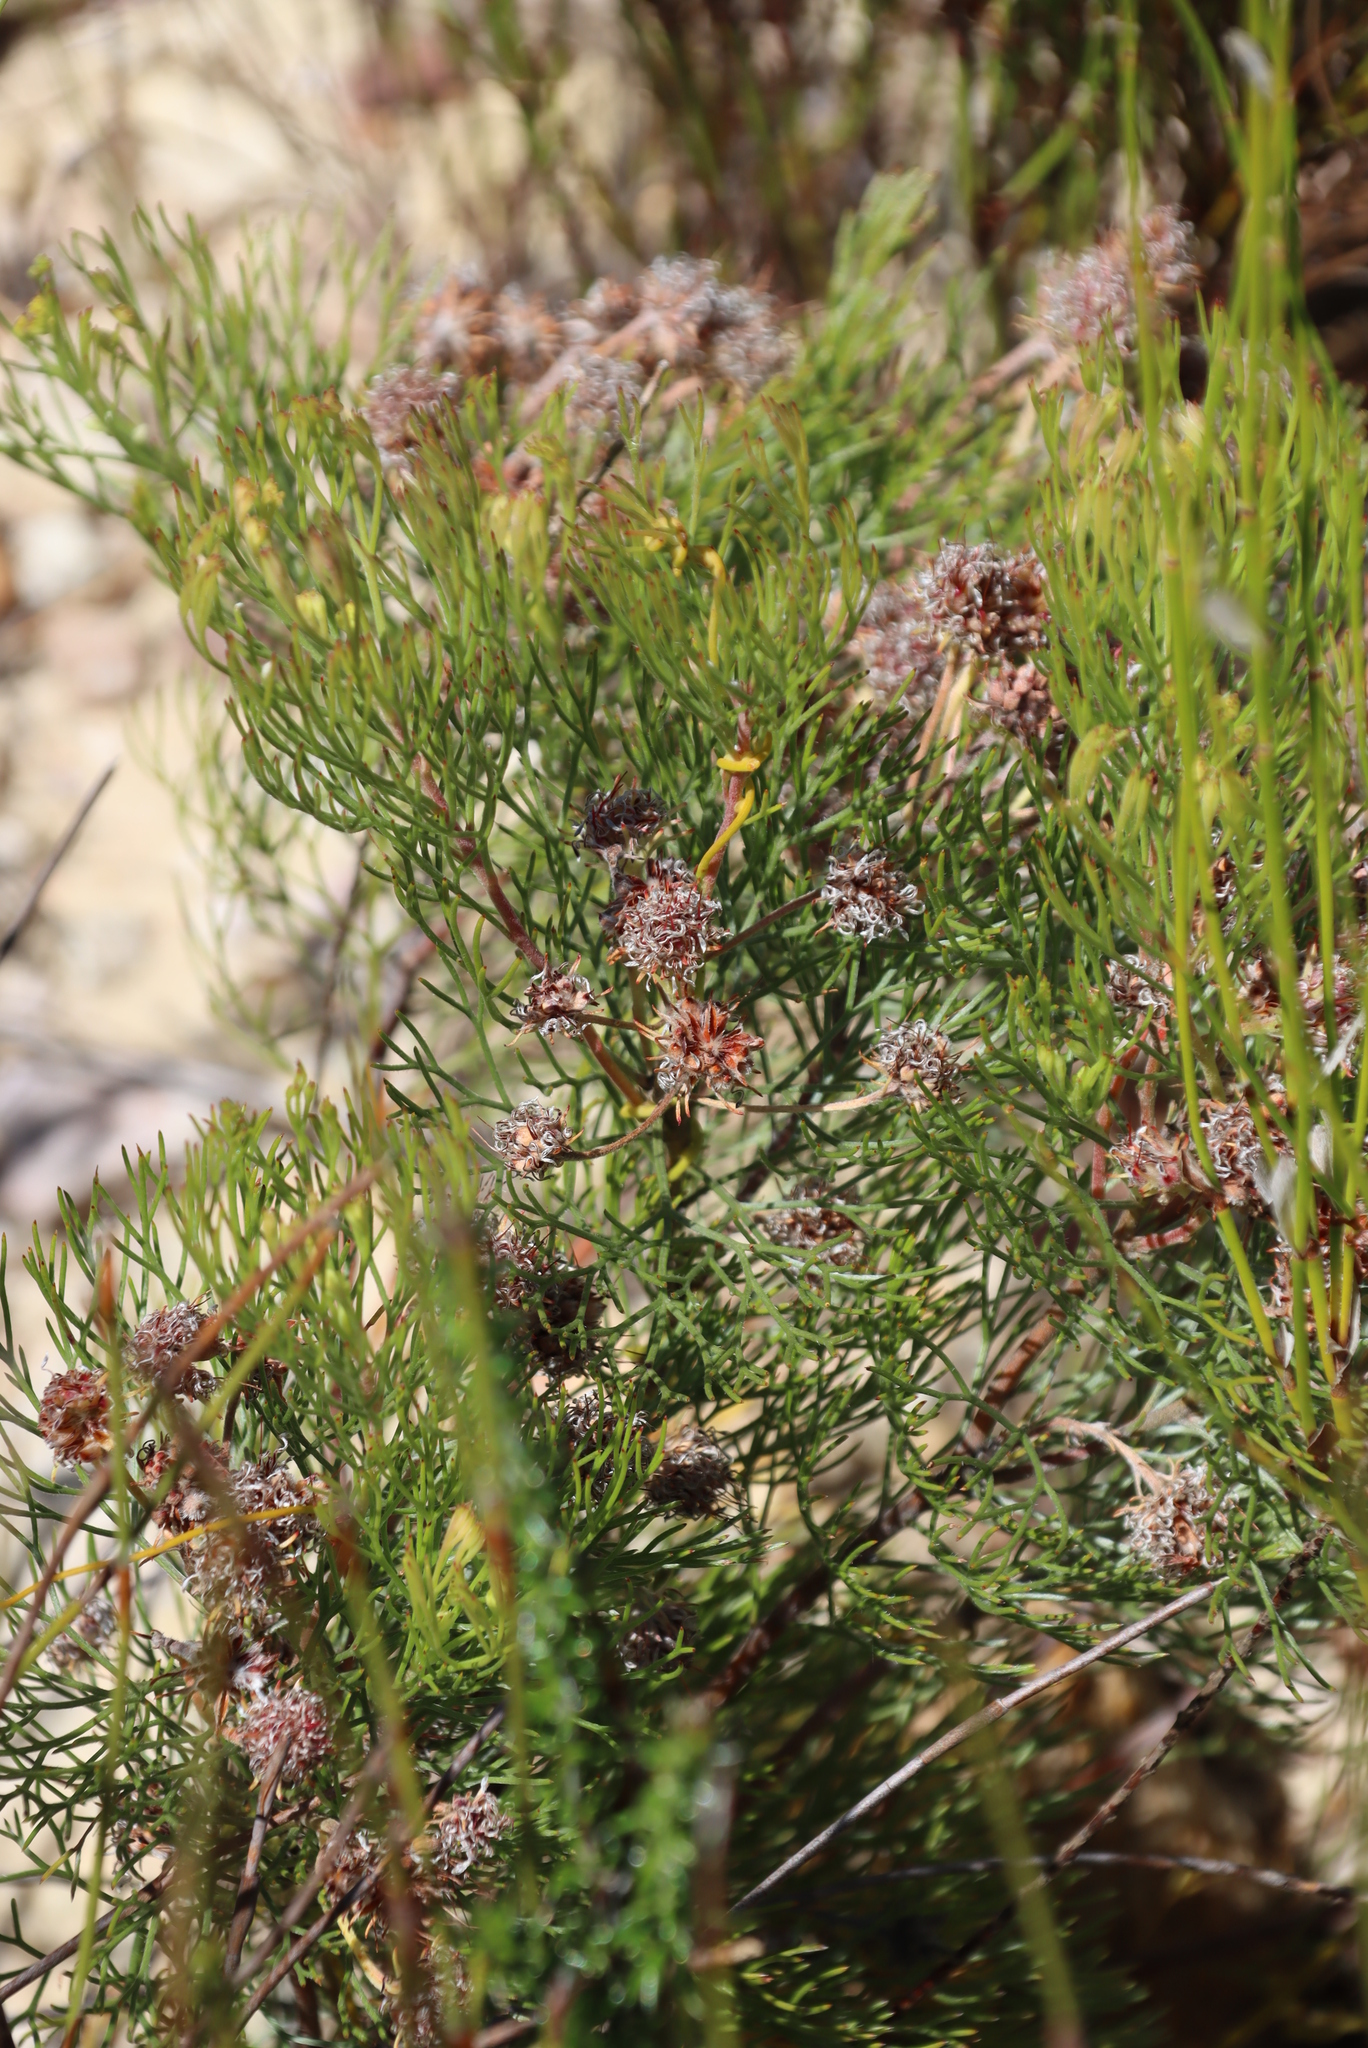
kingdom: Plantae
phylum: Tracheophyta
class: Magnoliopsida
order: Proteales
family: Proteaceae
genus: Serruria
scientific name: Serruria fasciflora
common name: Common pin spiderhead
